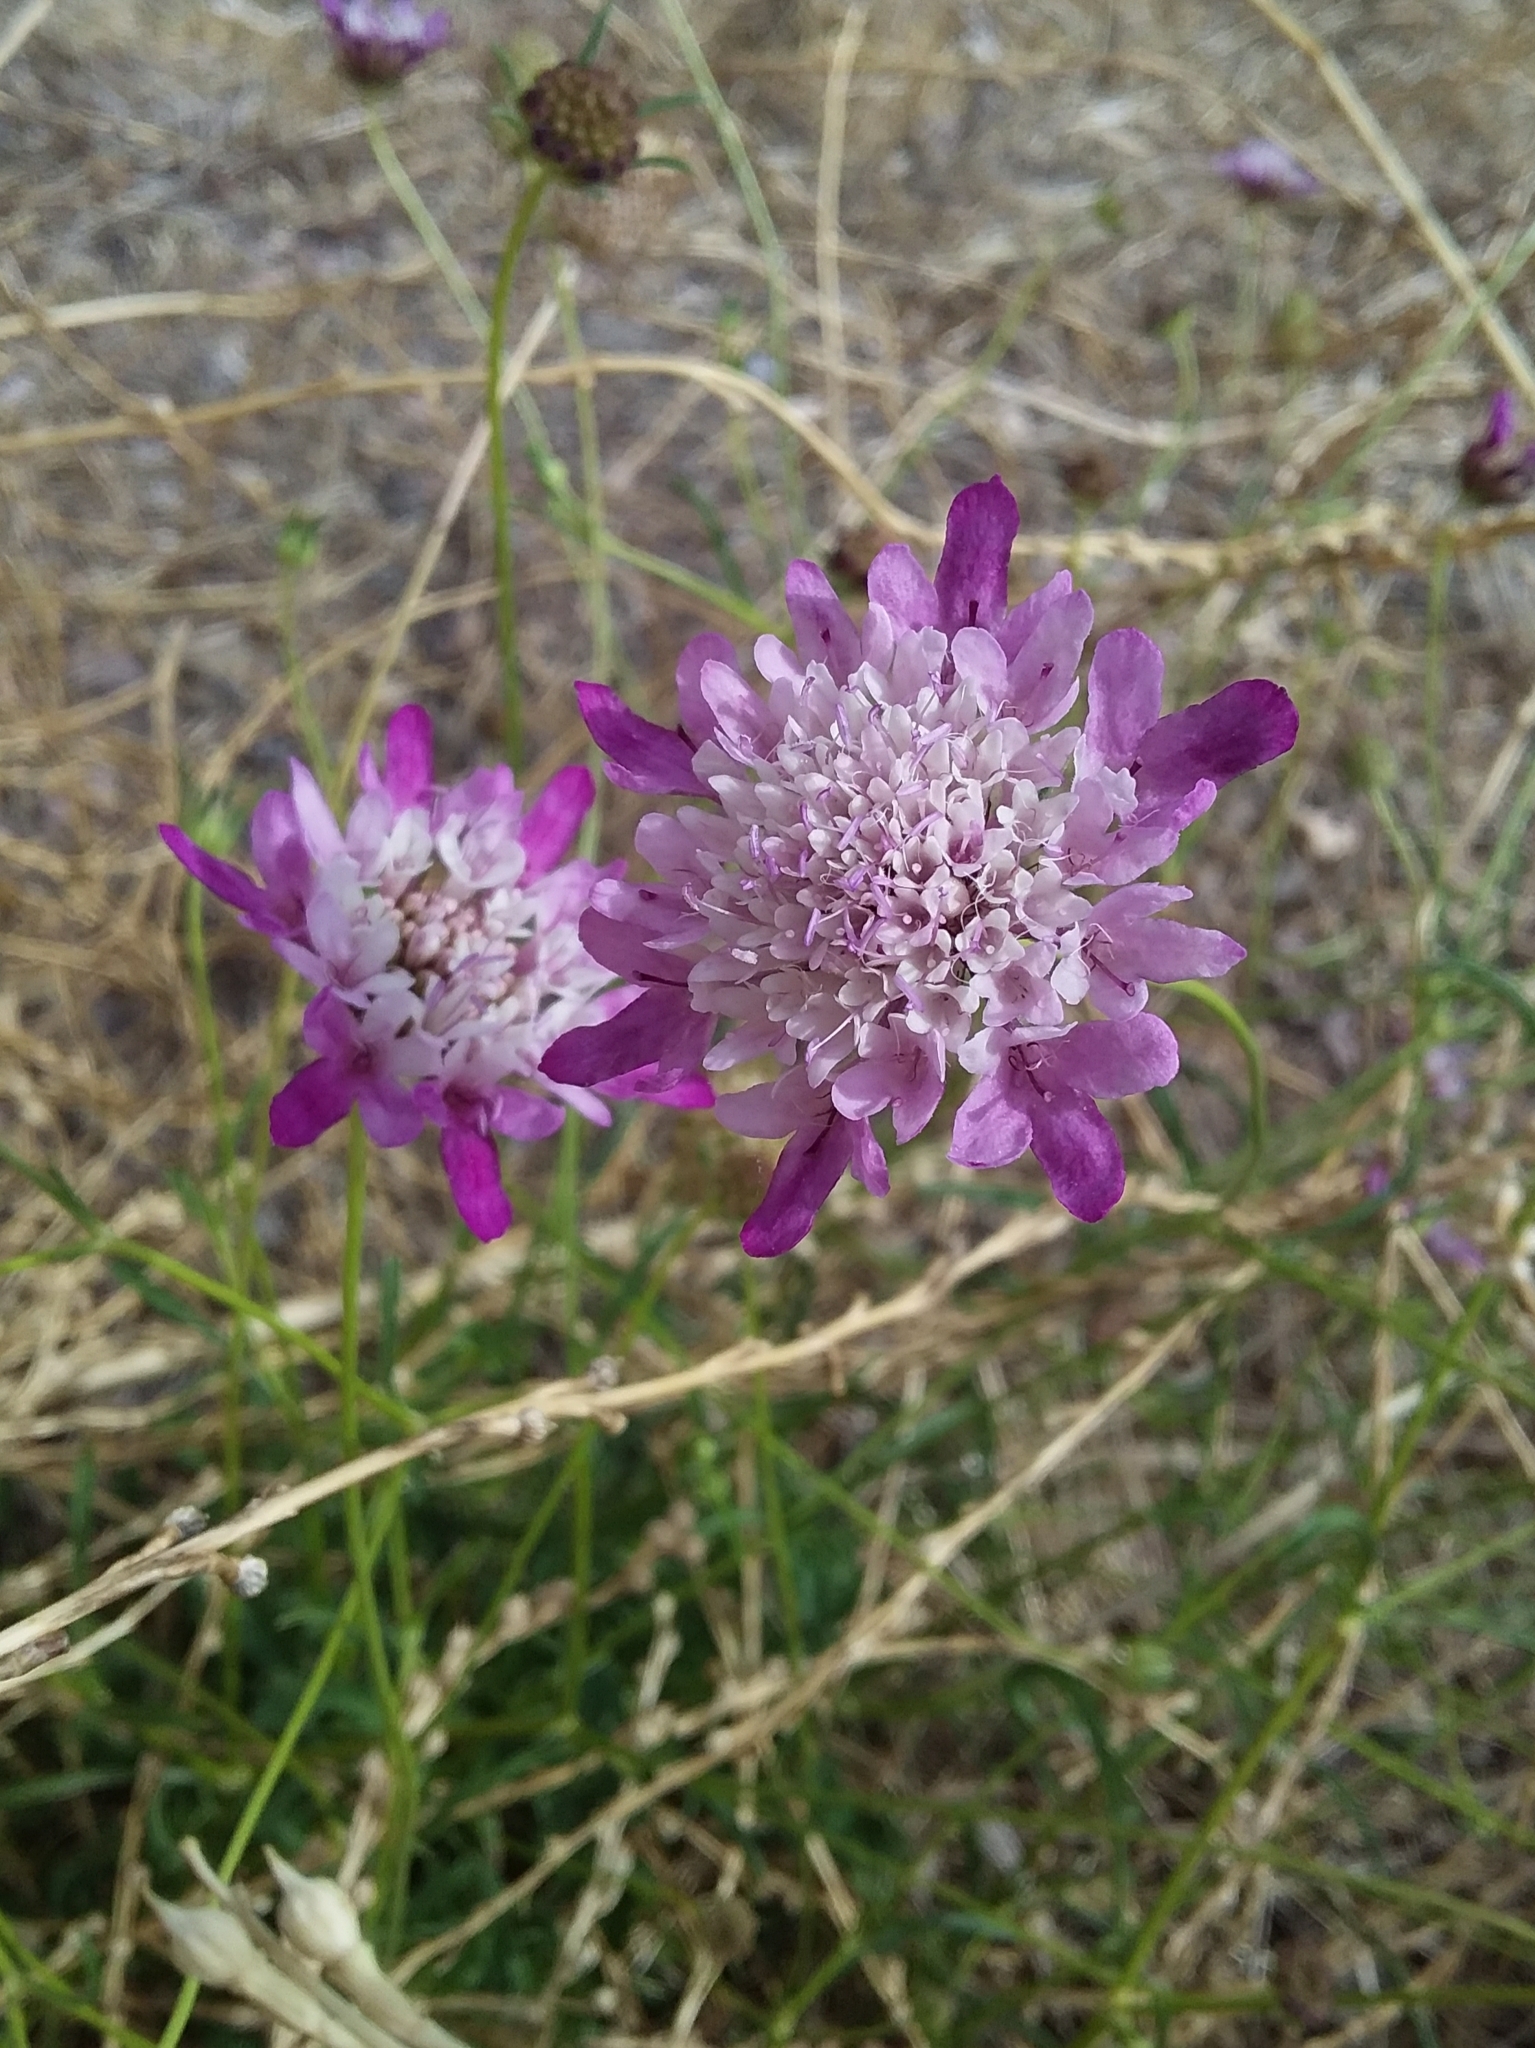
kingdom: Plantae
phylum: Tracheophyta
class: Magnoliopsida
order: Dipsacales
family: Caprifoliaceae
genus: Sixalix
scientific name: Sixalix atropurpurea
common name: Sweet scabious
